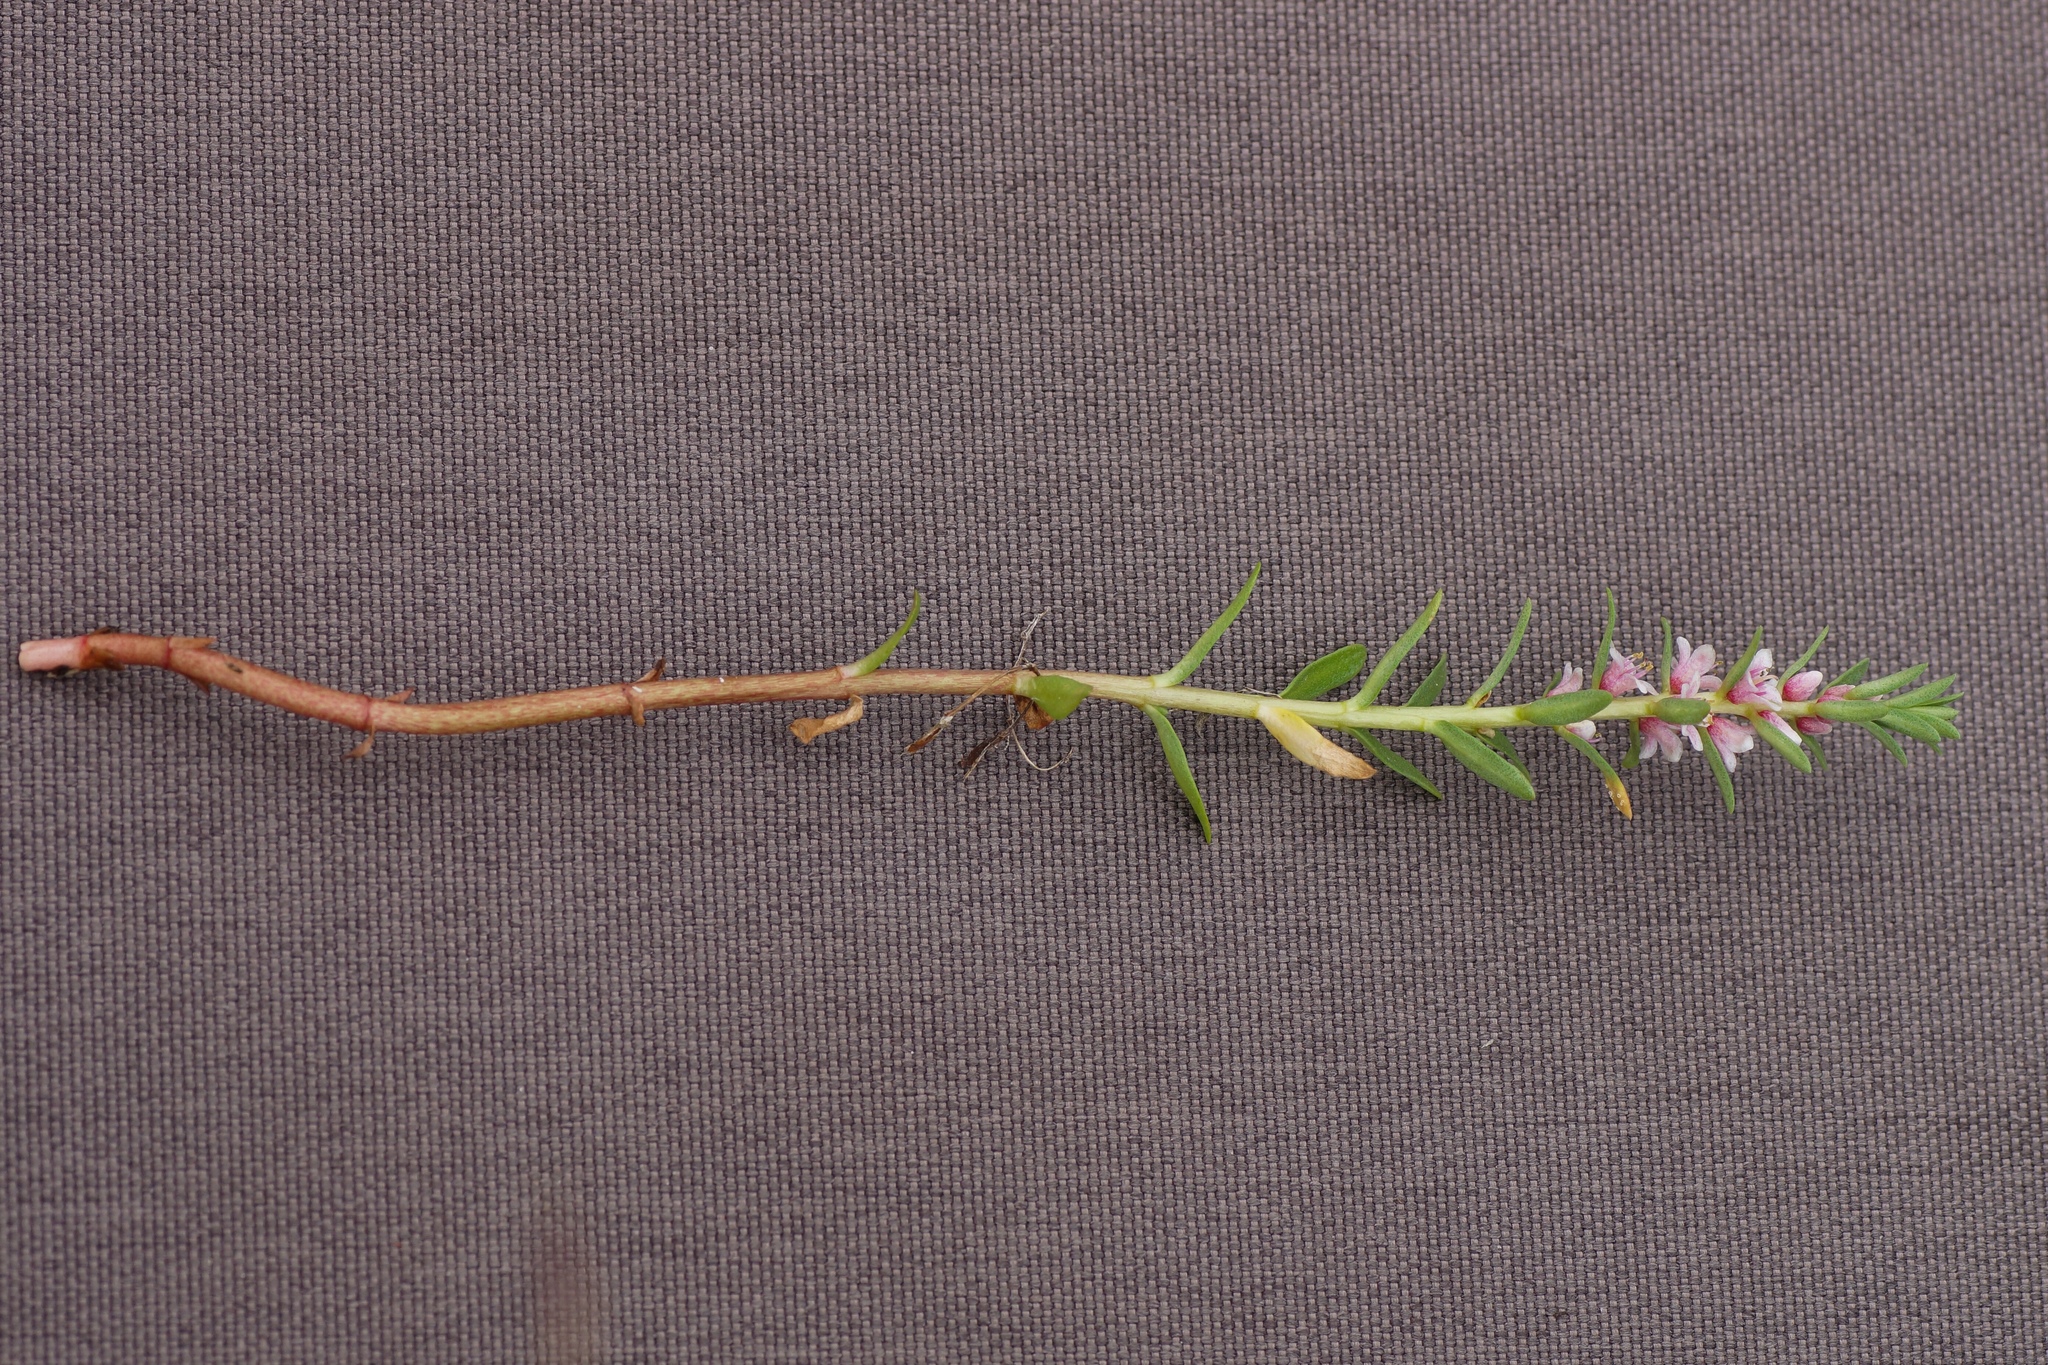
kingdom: Plantae
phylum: Tracheophyta
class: Magnoliopsida
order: Ericales
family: Primulaceae
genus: Lysimachia
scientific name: Lysimachia maritima
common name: Sea milkwort
